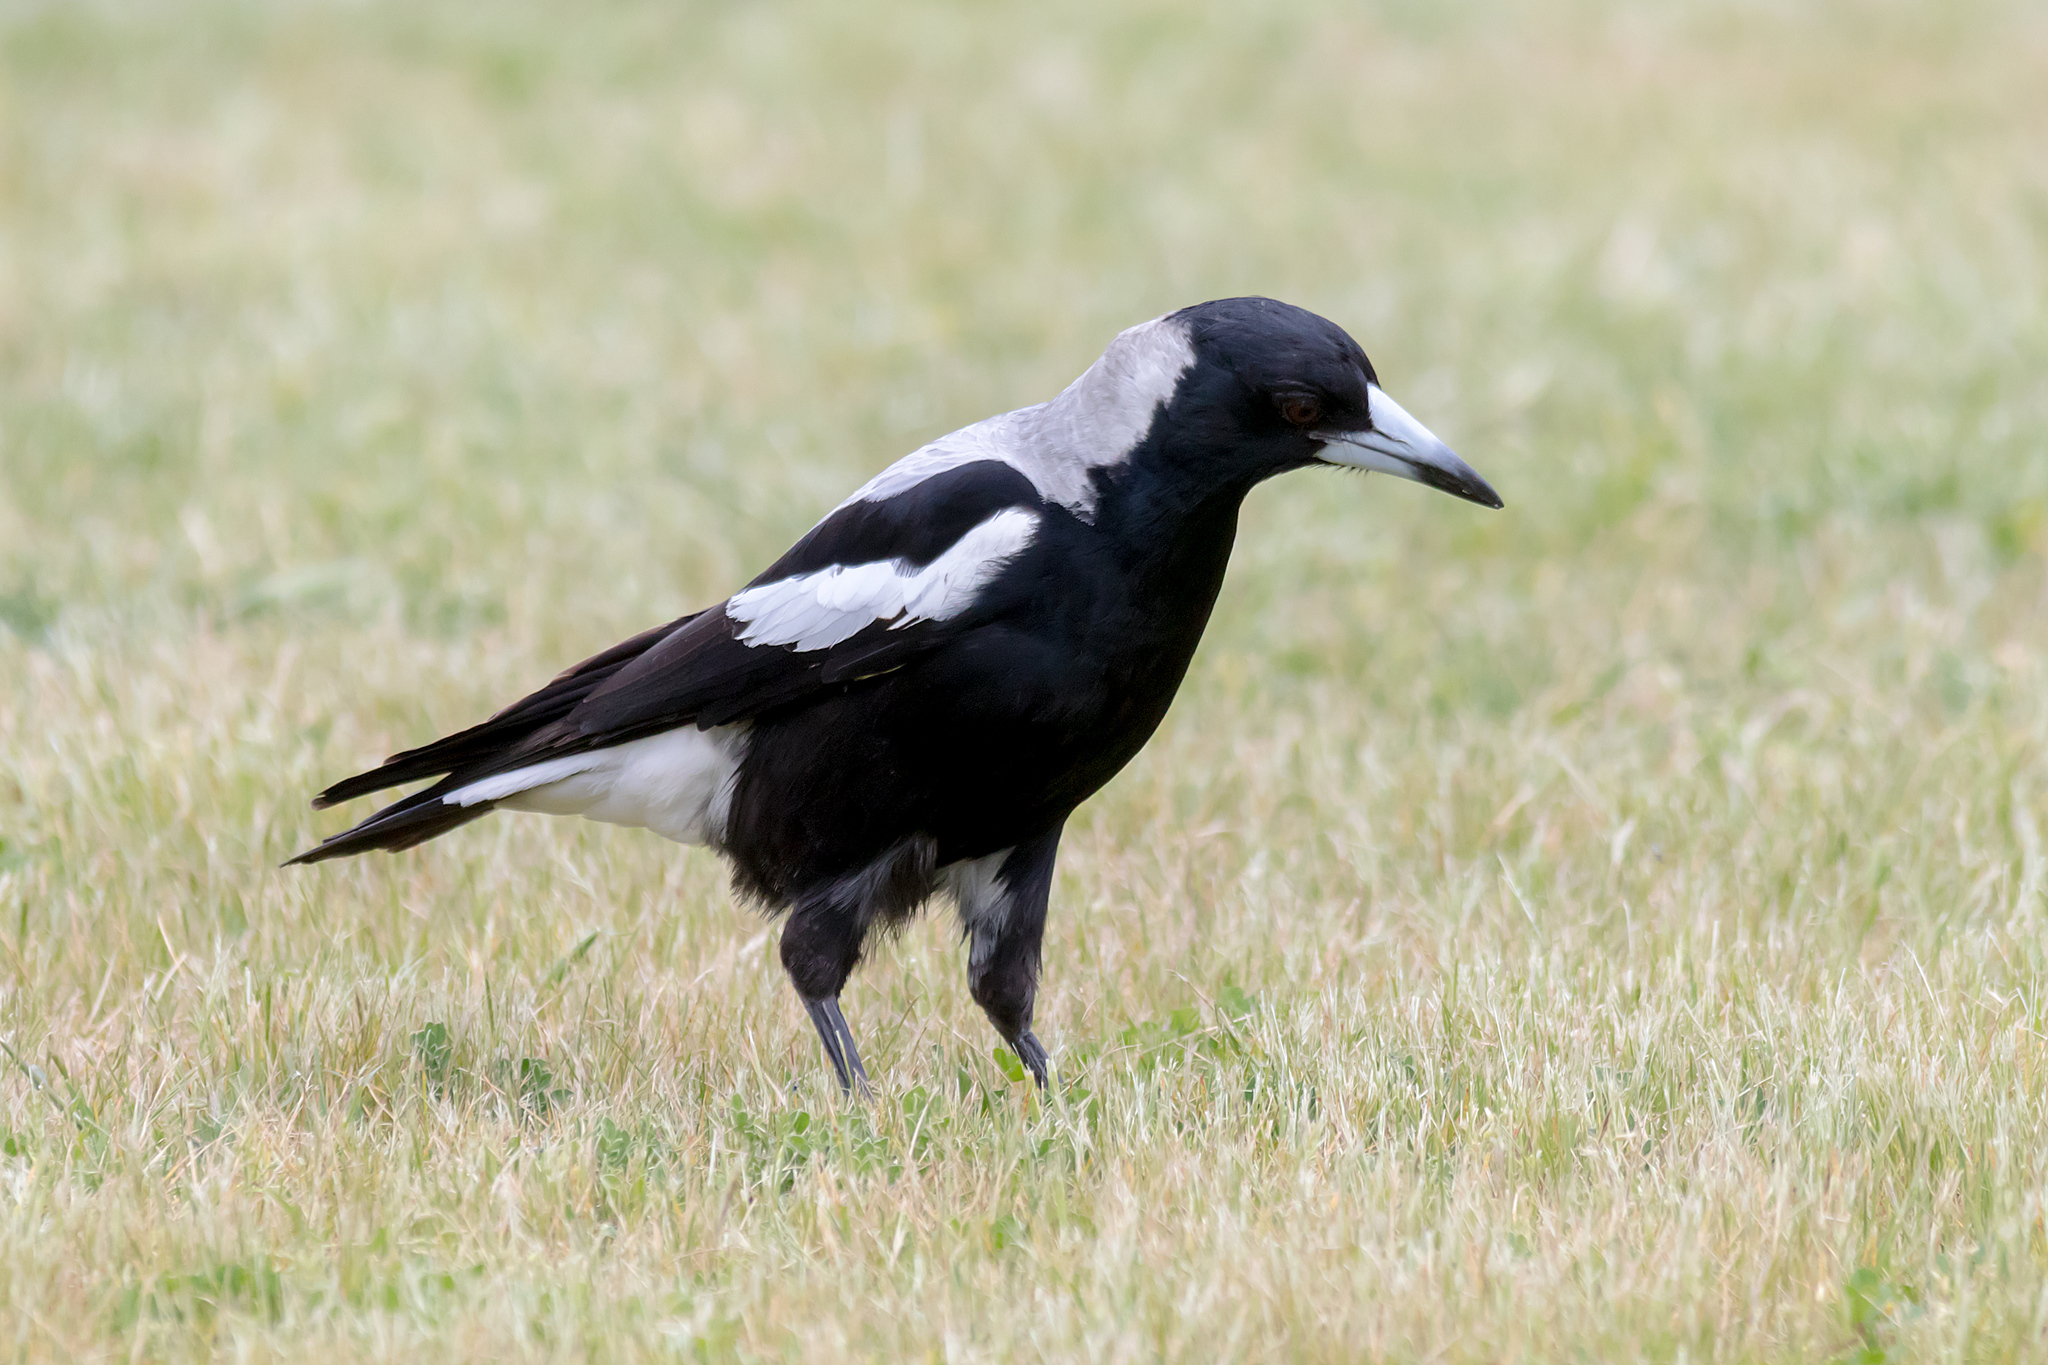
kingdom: Animalia
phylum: Chordata
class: Aves
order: Passeriformes
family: Cracticidae
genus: Gymnorhina
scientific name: Gymnorhina tibicen
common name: Australian magpie
